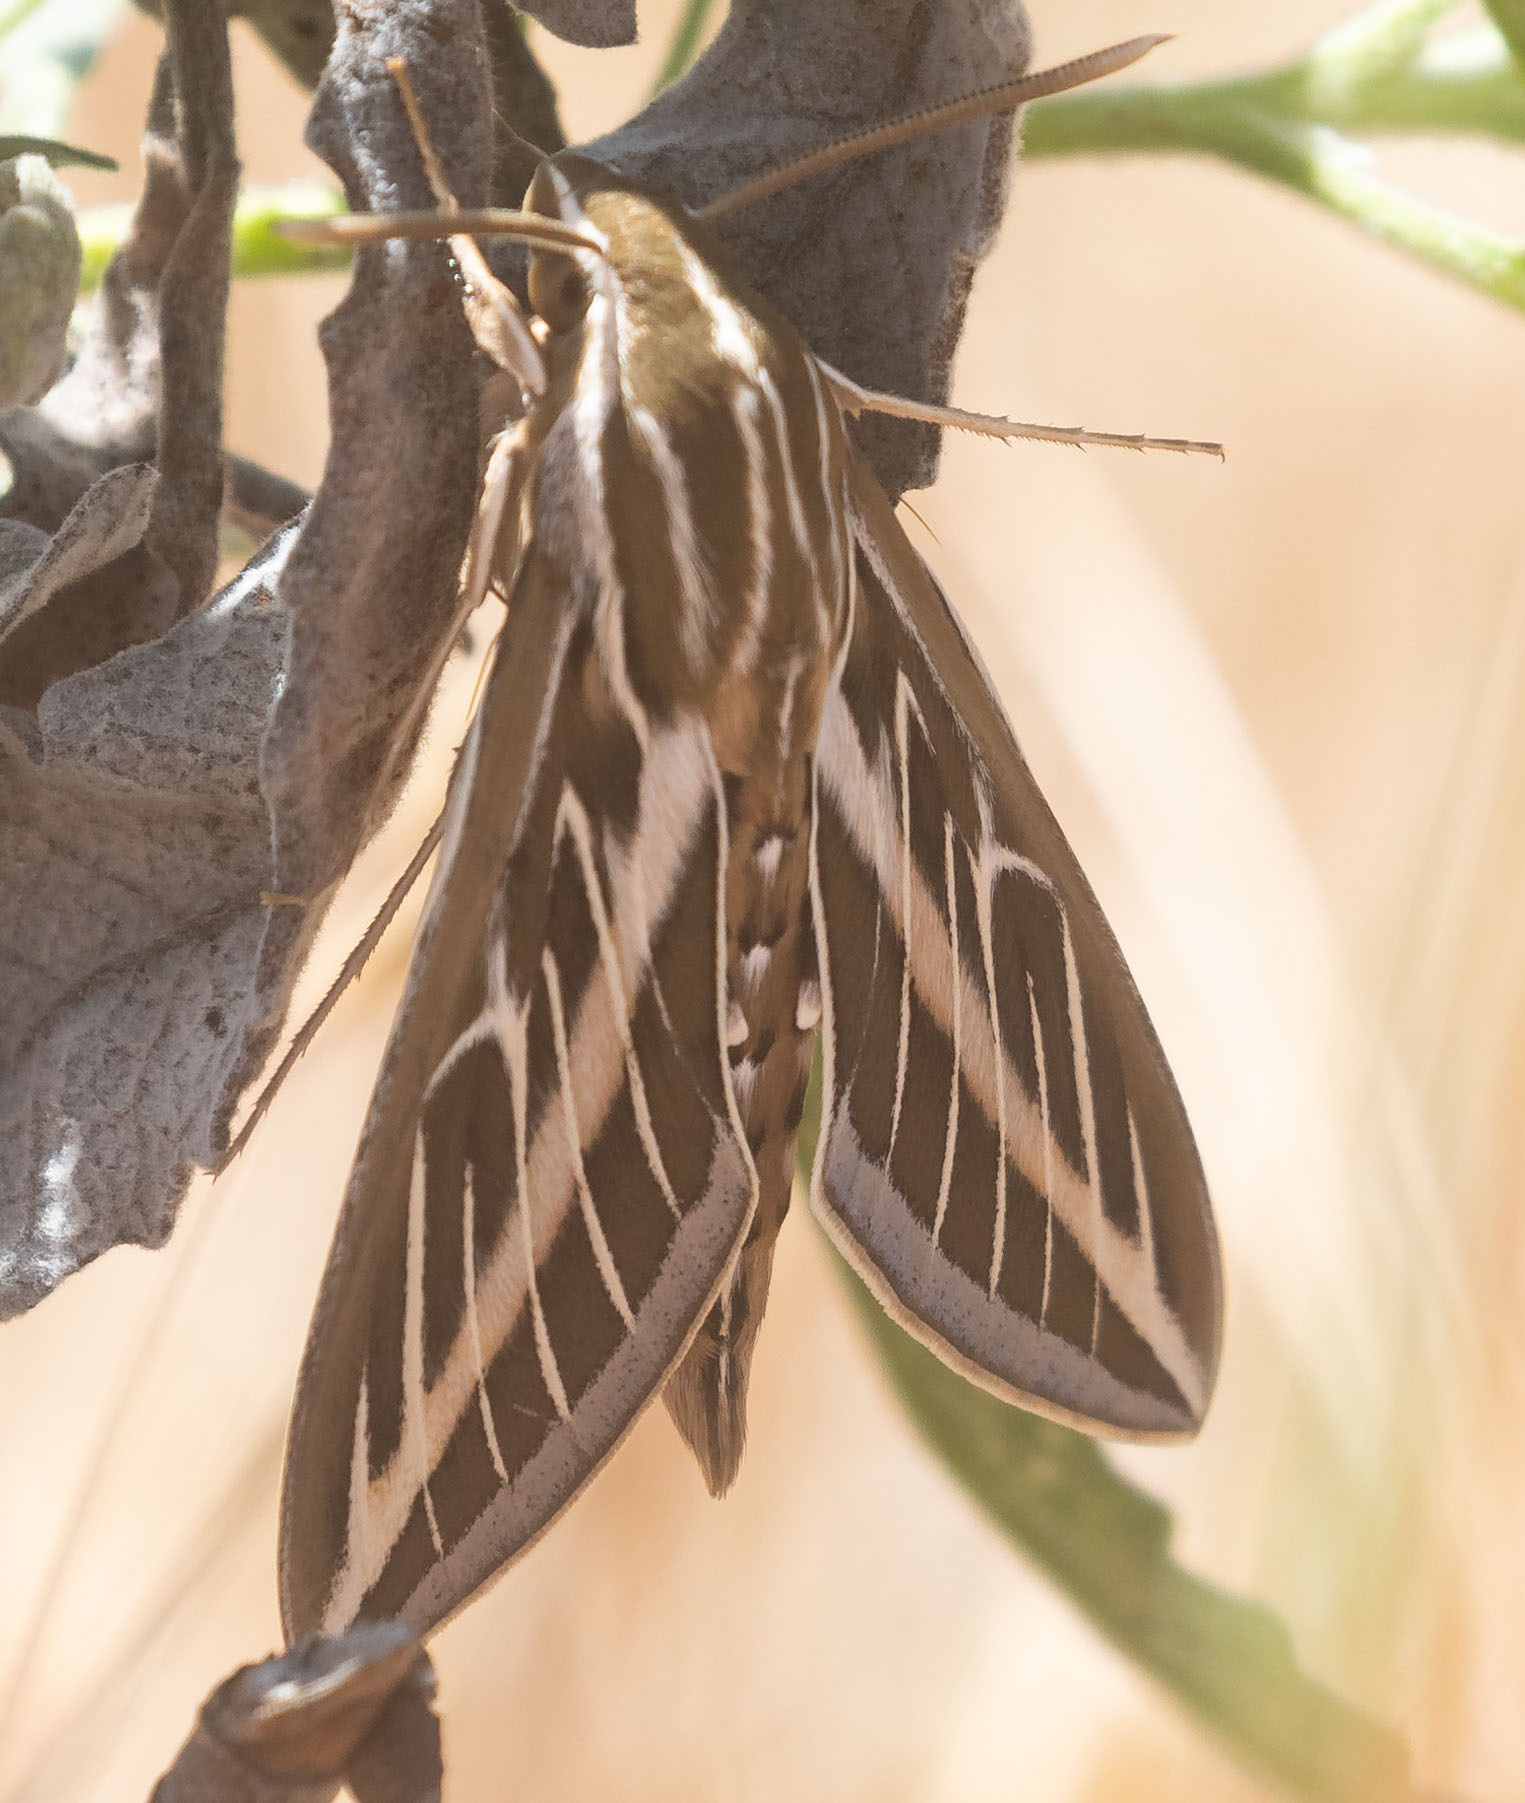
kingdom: Animalia
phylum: Arthropoda
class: Insecta
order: Lepidoptera
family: Sphingidae
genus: Hyles
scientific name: Hyles lineata
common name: White-lined sphinx
